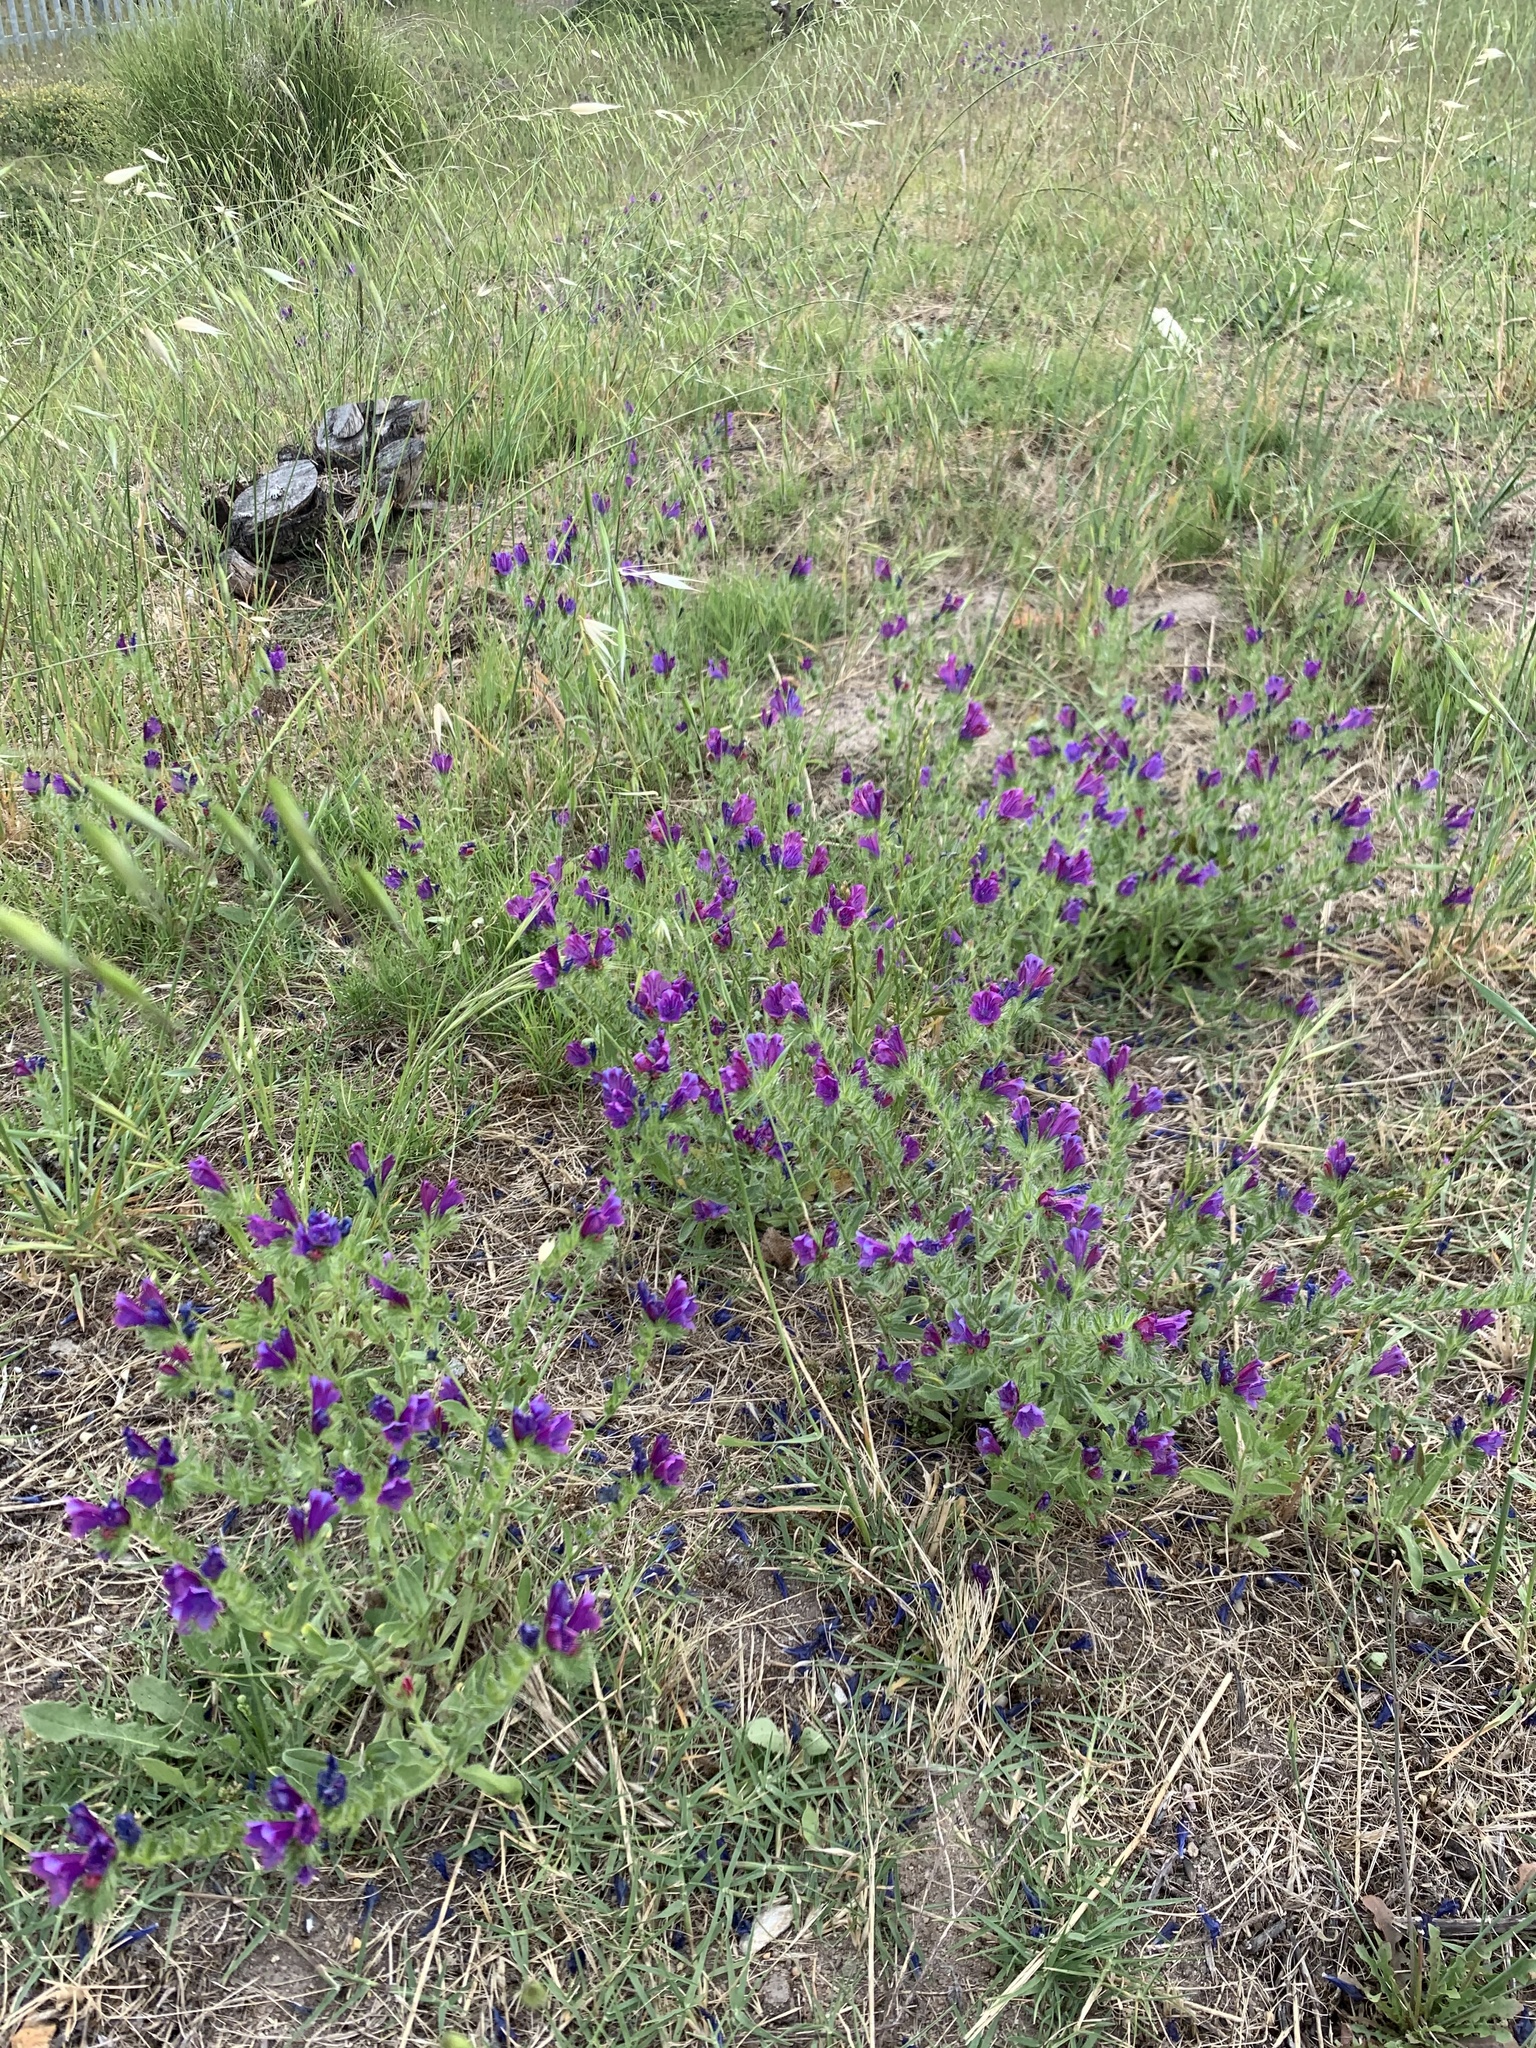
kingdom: Plantae
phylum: Tracheophyta
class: Magnoliopsida
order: Boraginales
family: Boraginaceae
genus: Echium
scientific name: Echium plantagineum
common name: Purple viper's-bugloss
